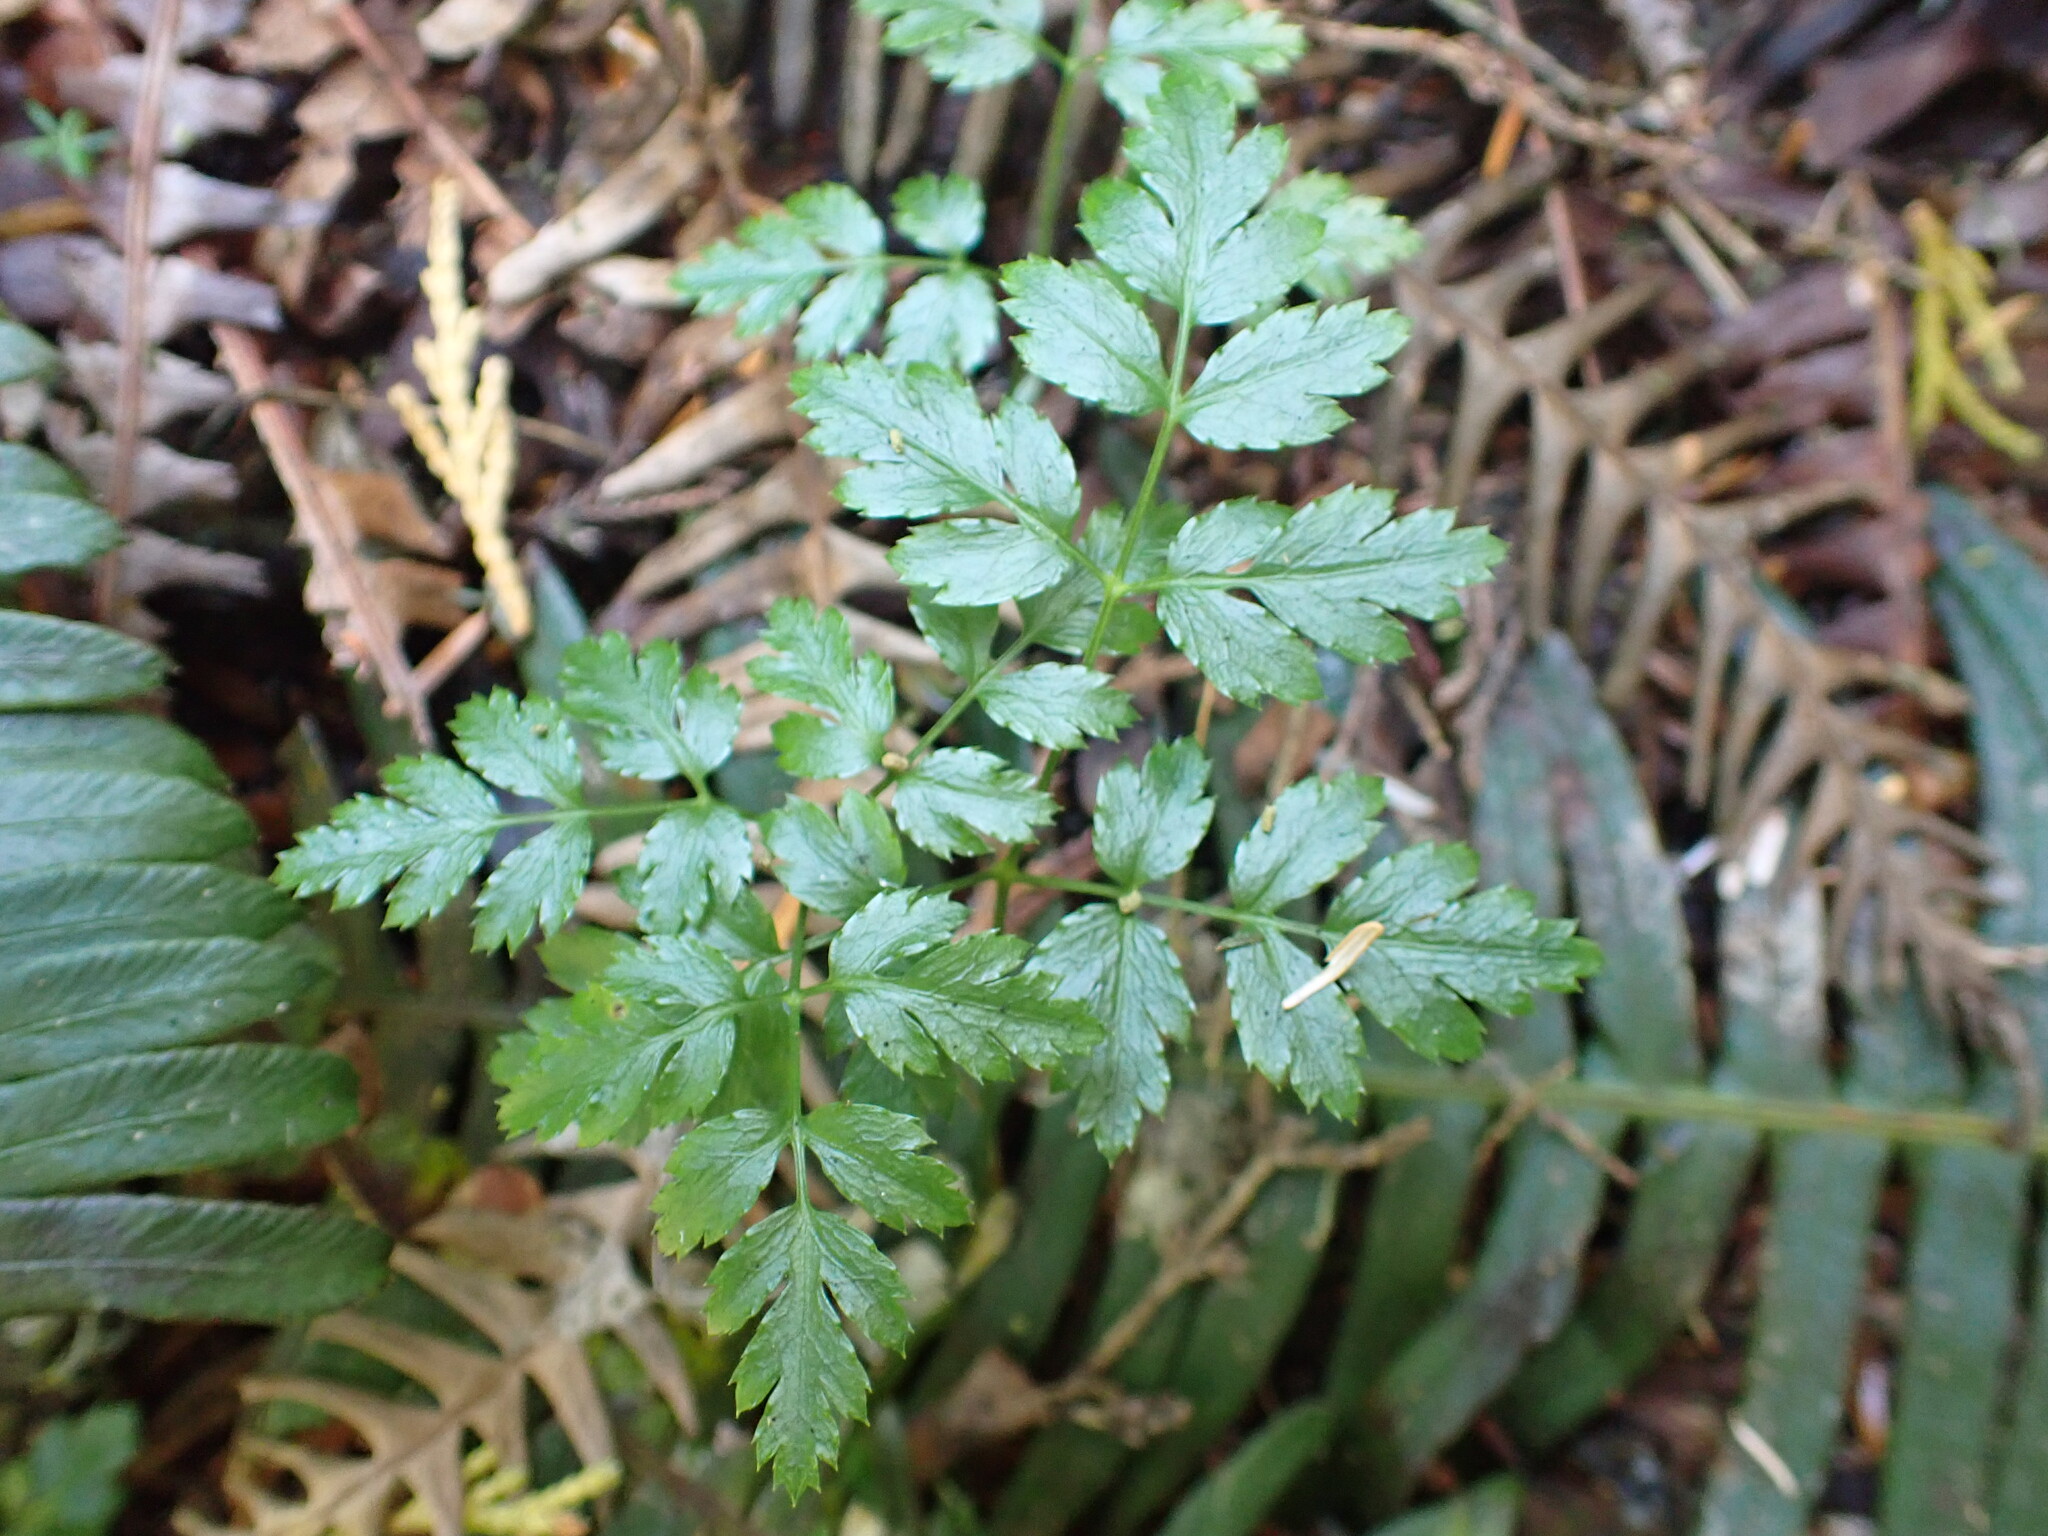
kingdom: Plantae
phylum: Tracheophyta
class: Magnoliopsida
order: Ranunculales
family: Ranunculaceae
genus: Coptis
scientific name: Coptis aspleniifolia
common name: Fern-leaved goldthread
